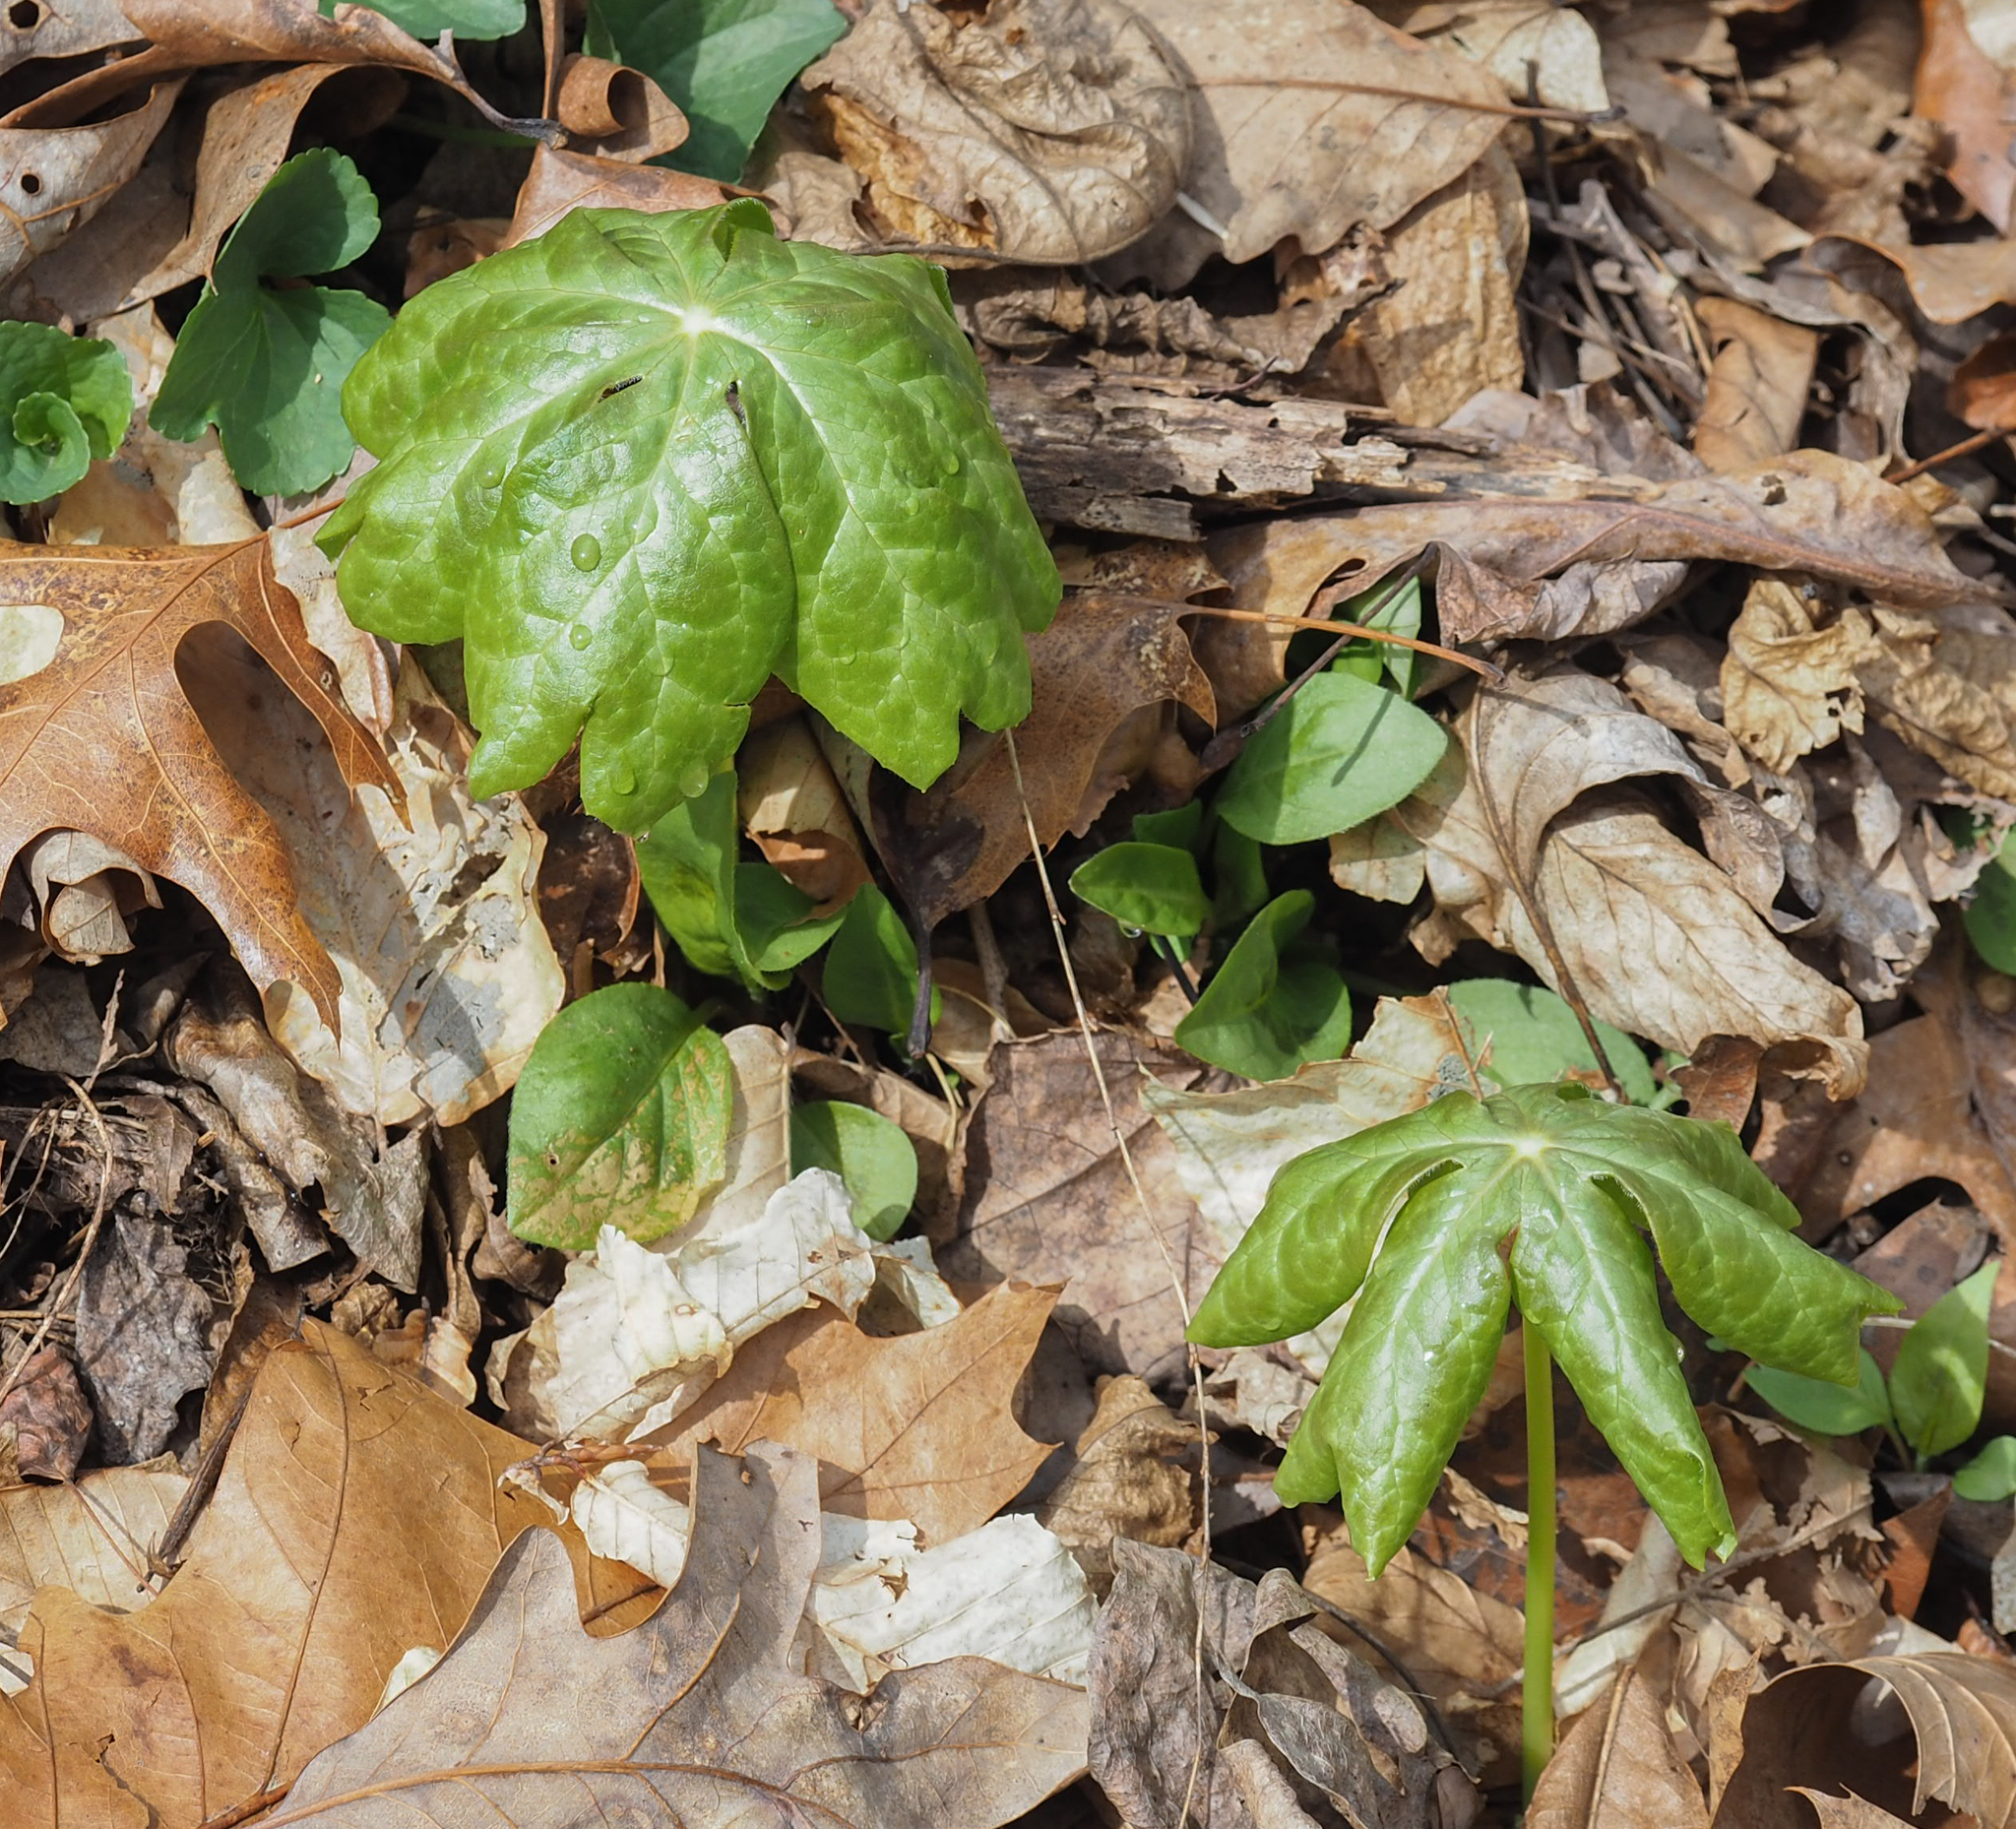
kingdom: Plantae
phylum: Tracheophyta
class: Magnoliopsida
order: Ranunculales
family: Berberidaceae
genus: Podophyllum
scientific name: Podophyllum peltatum
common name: Wild mandrake
